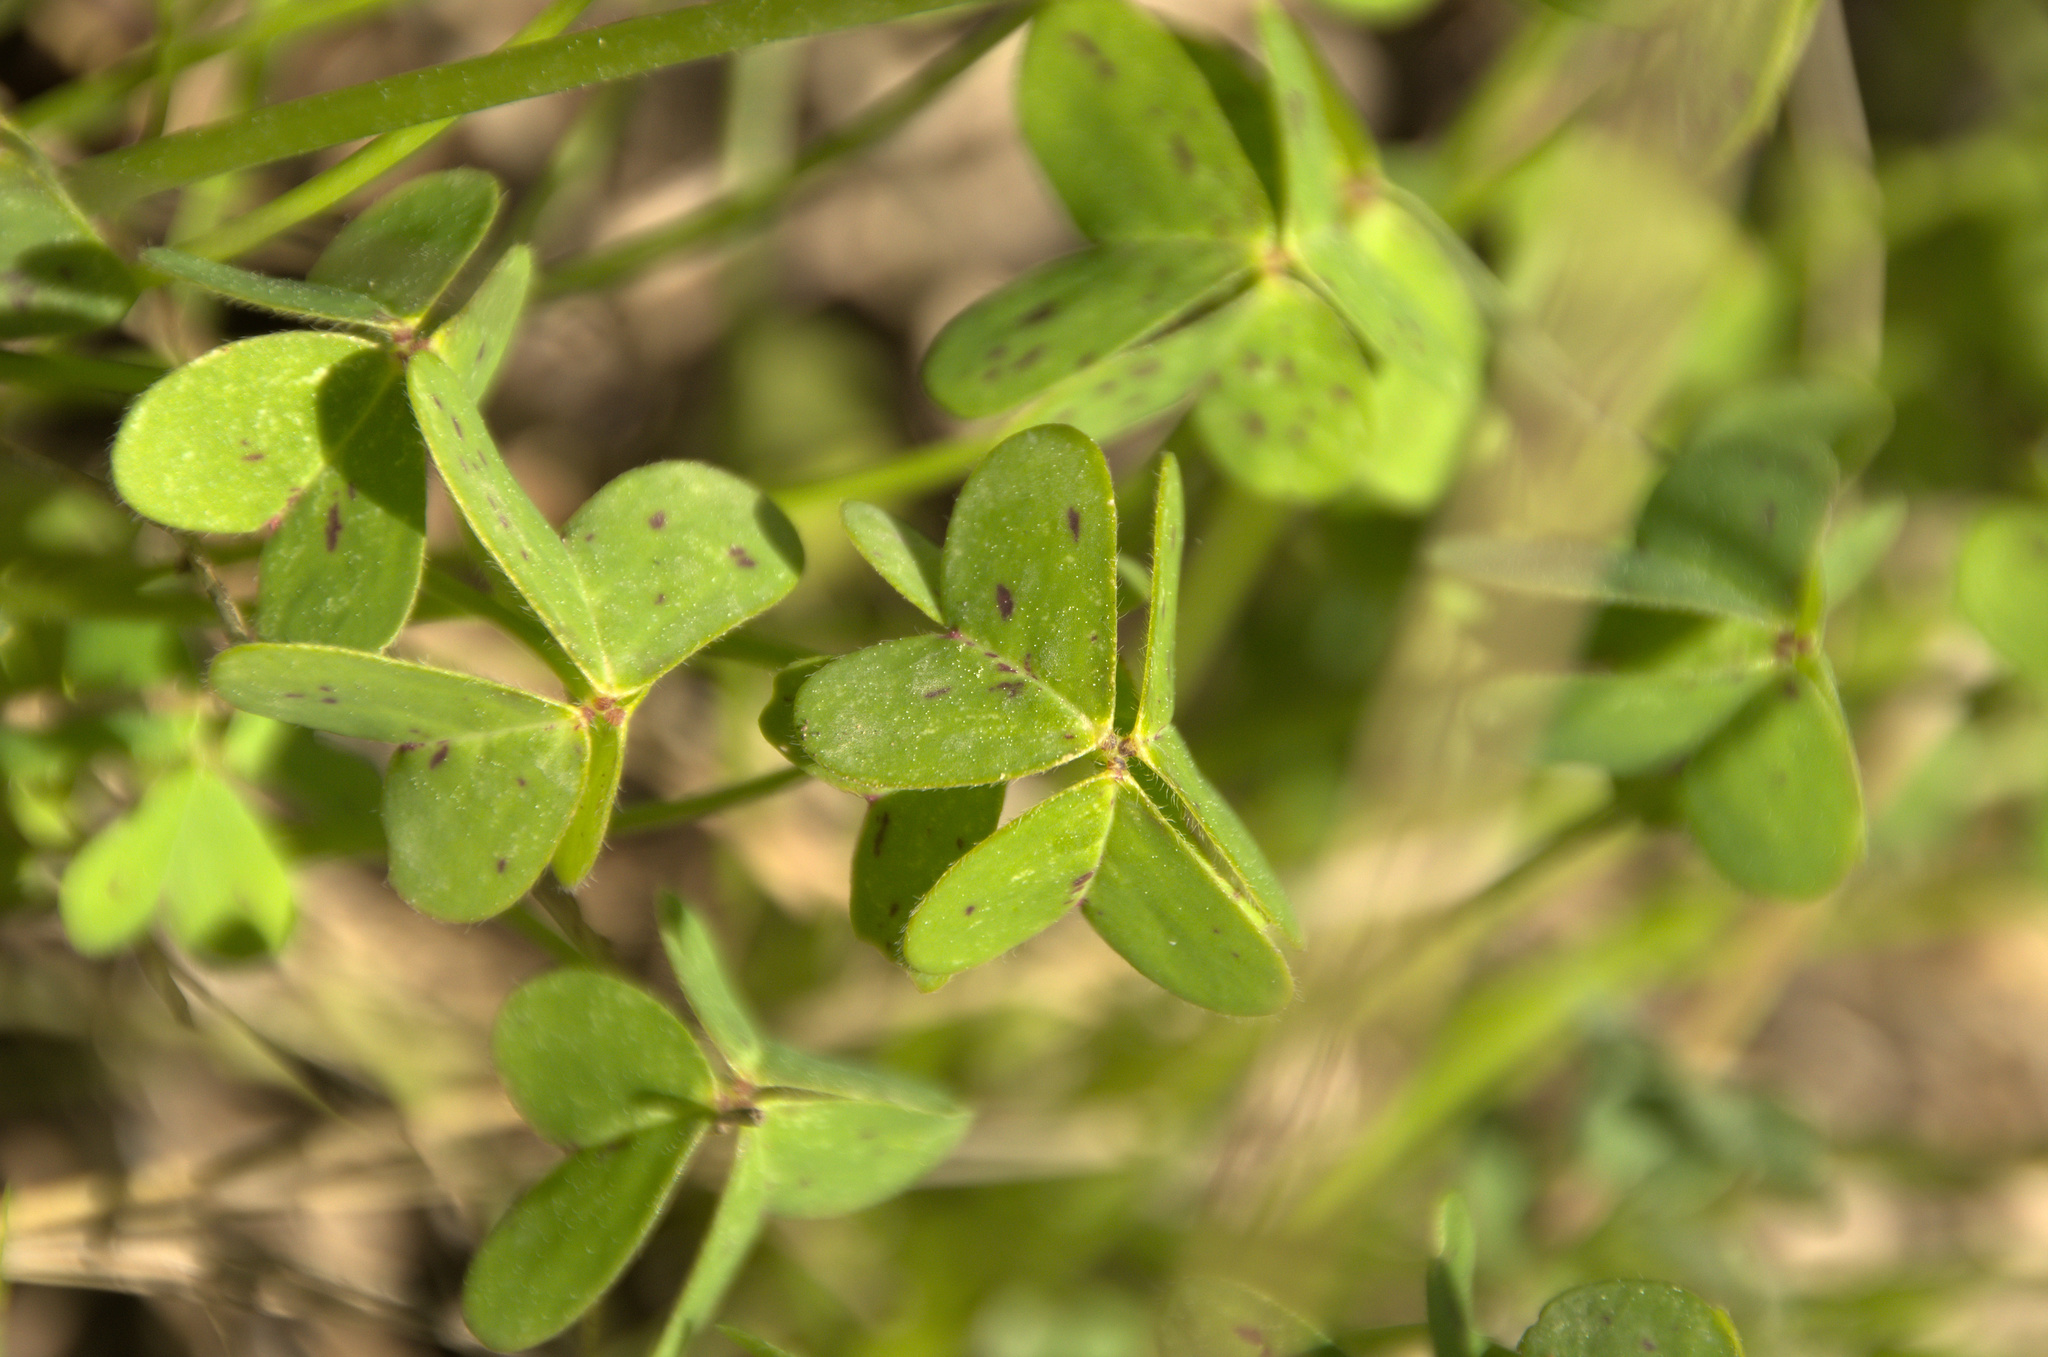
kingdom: Plantae
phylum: Tracheophyta
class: Magnoliopsida
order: Oxalidales
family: Oxalidaceae
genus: Oxalis
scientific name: Oxalis pes-caprae
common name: Bermuda-buttercup
